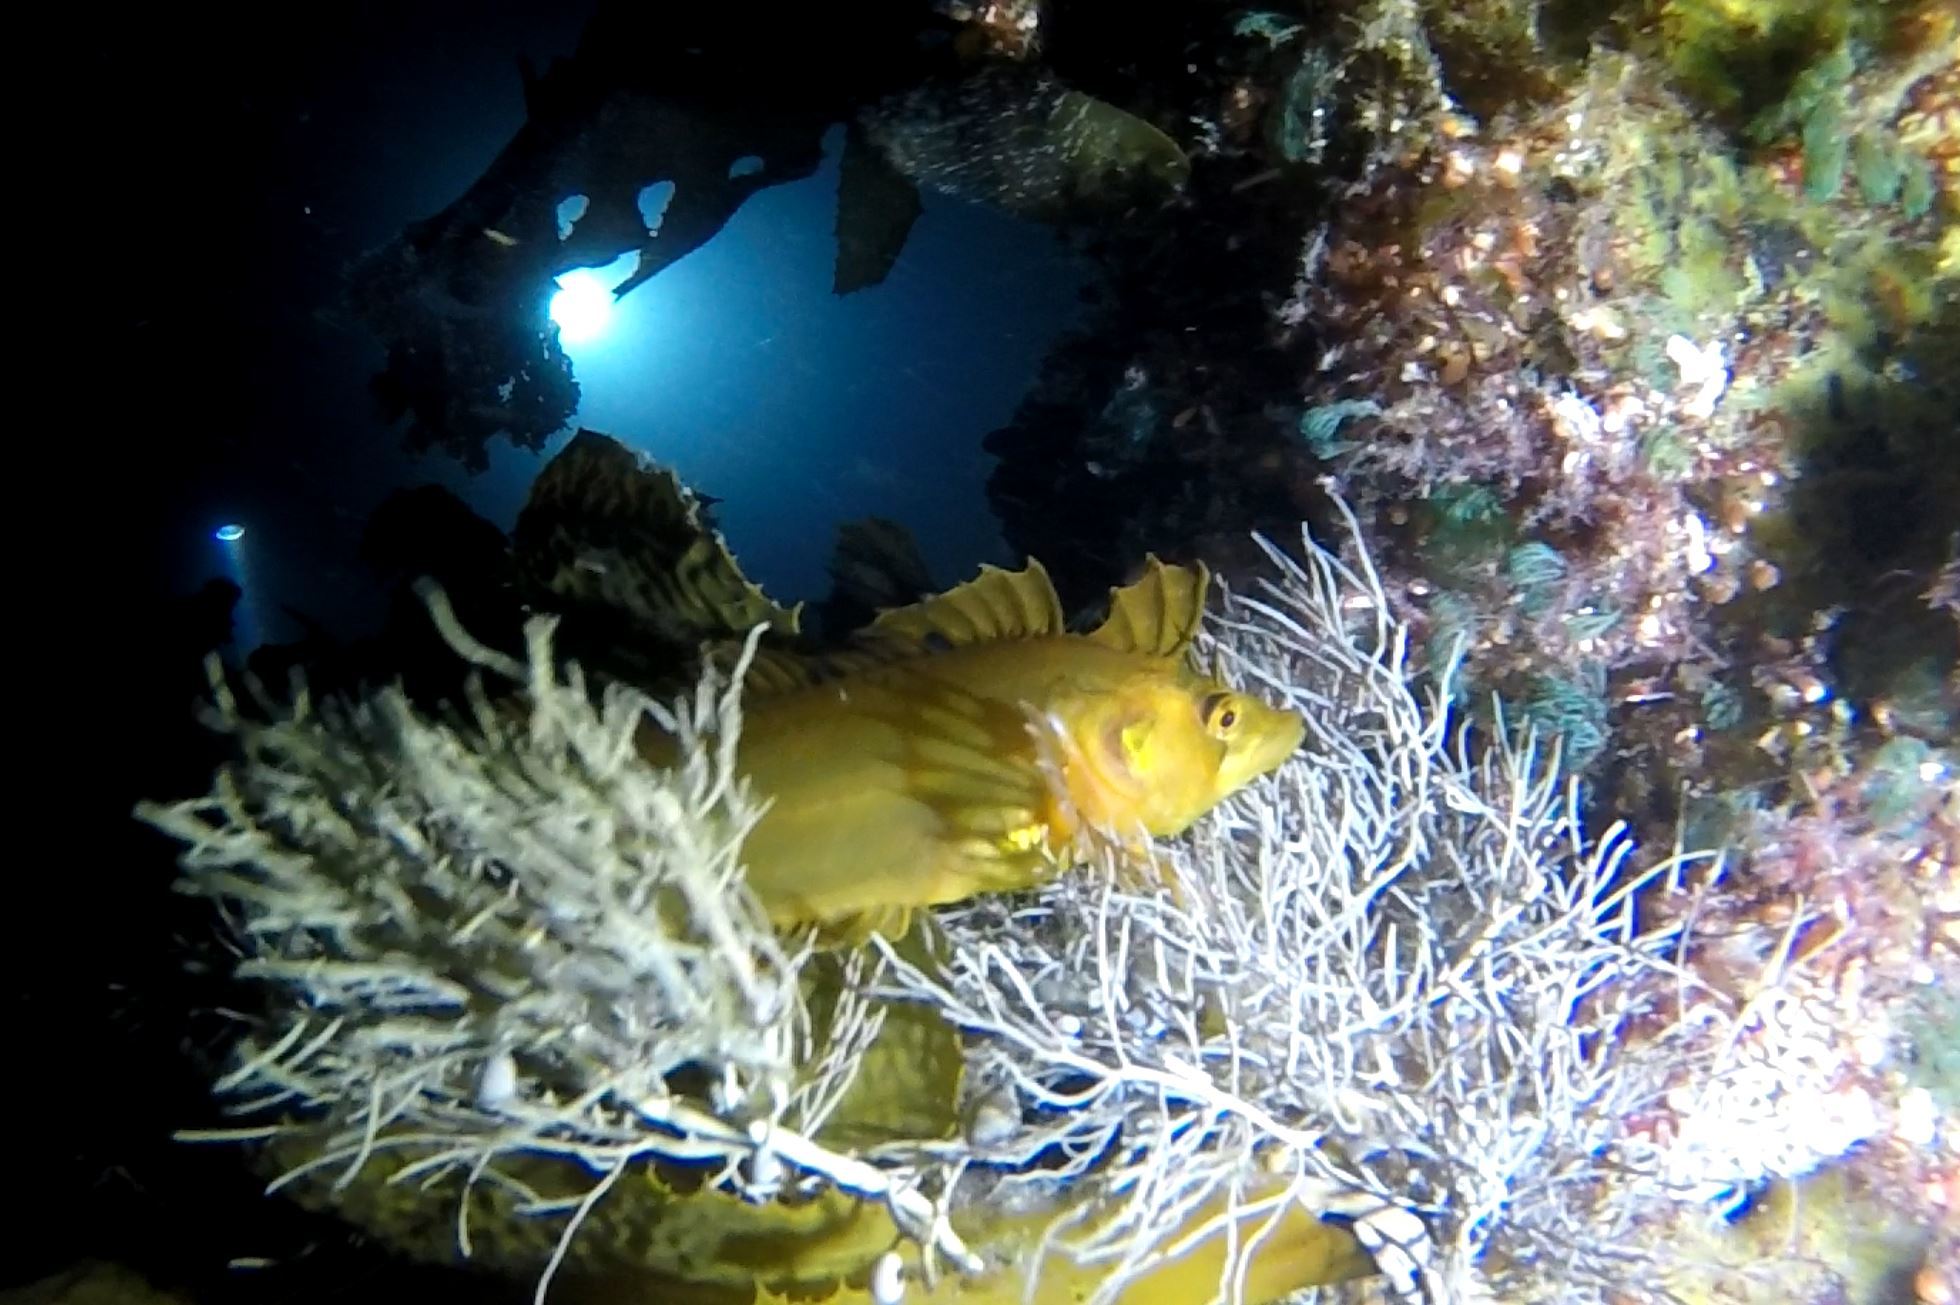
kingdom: Animalia
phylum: Chordata
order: Perciformes
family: Clinidae
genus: Heteroclinus
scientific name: Heteroclinus tristis
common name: Sharp-nose weedfish
